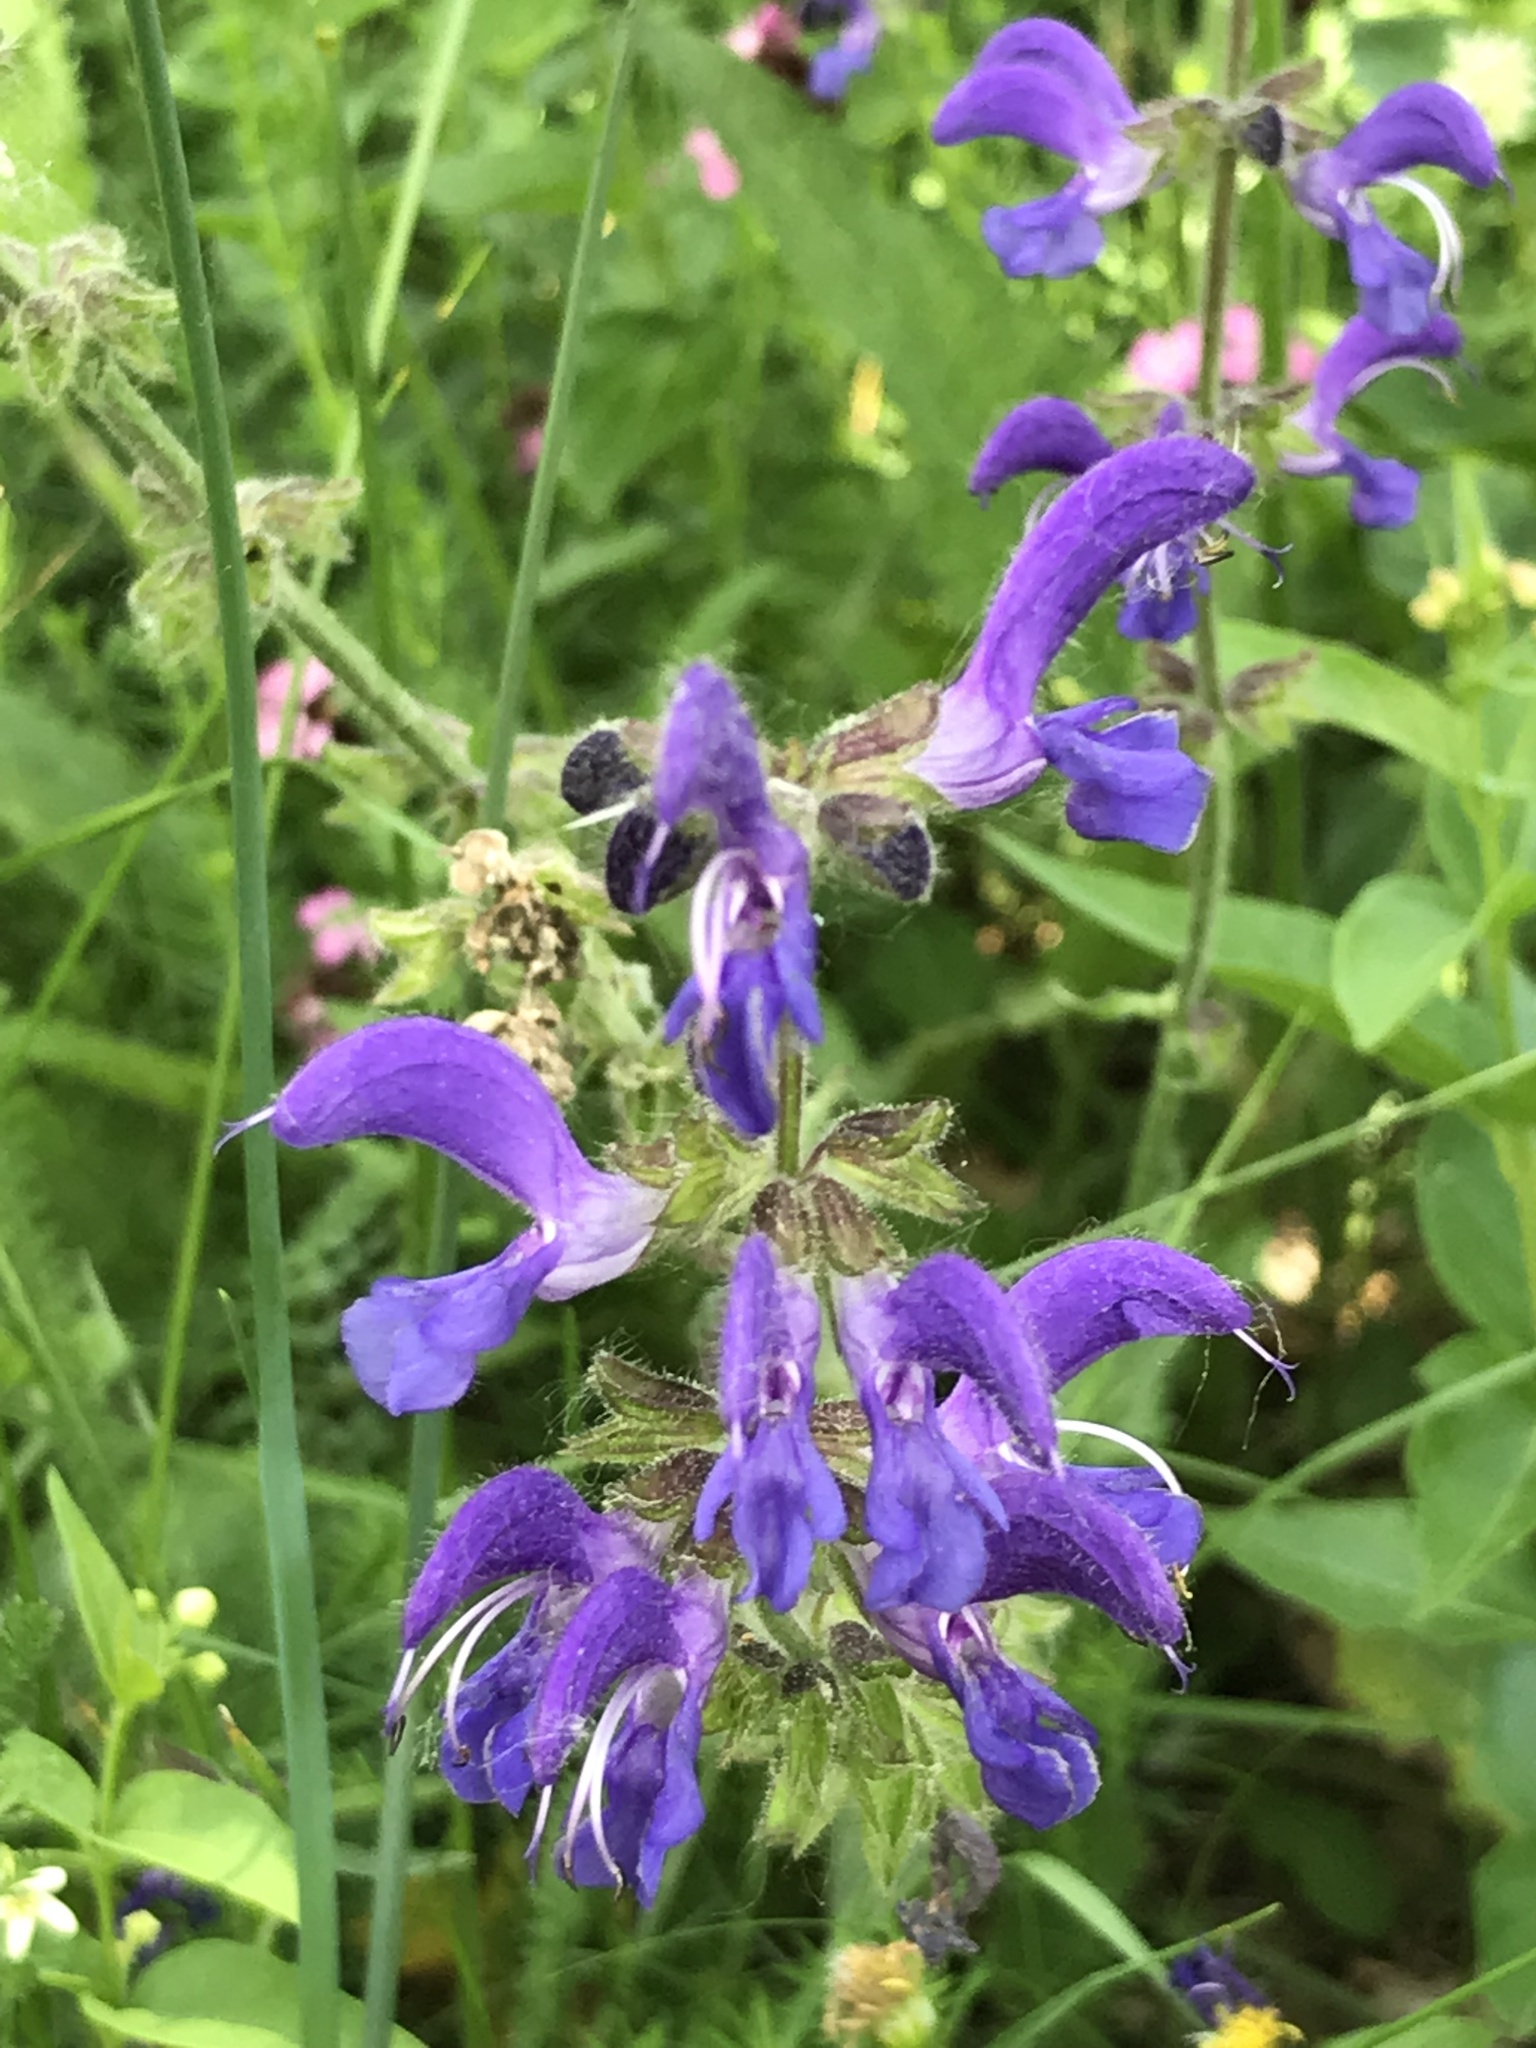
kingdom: Plantae
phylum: Tracheophyta
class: Magnoliopsida
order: Lamiales
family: Lamiaceae
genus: Salvia
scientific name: Salvia pratensis
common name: Meadow sage
